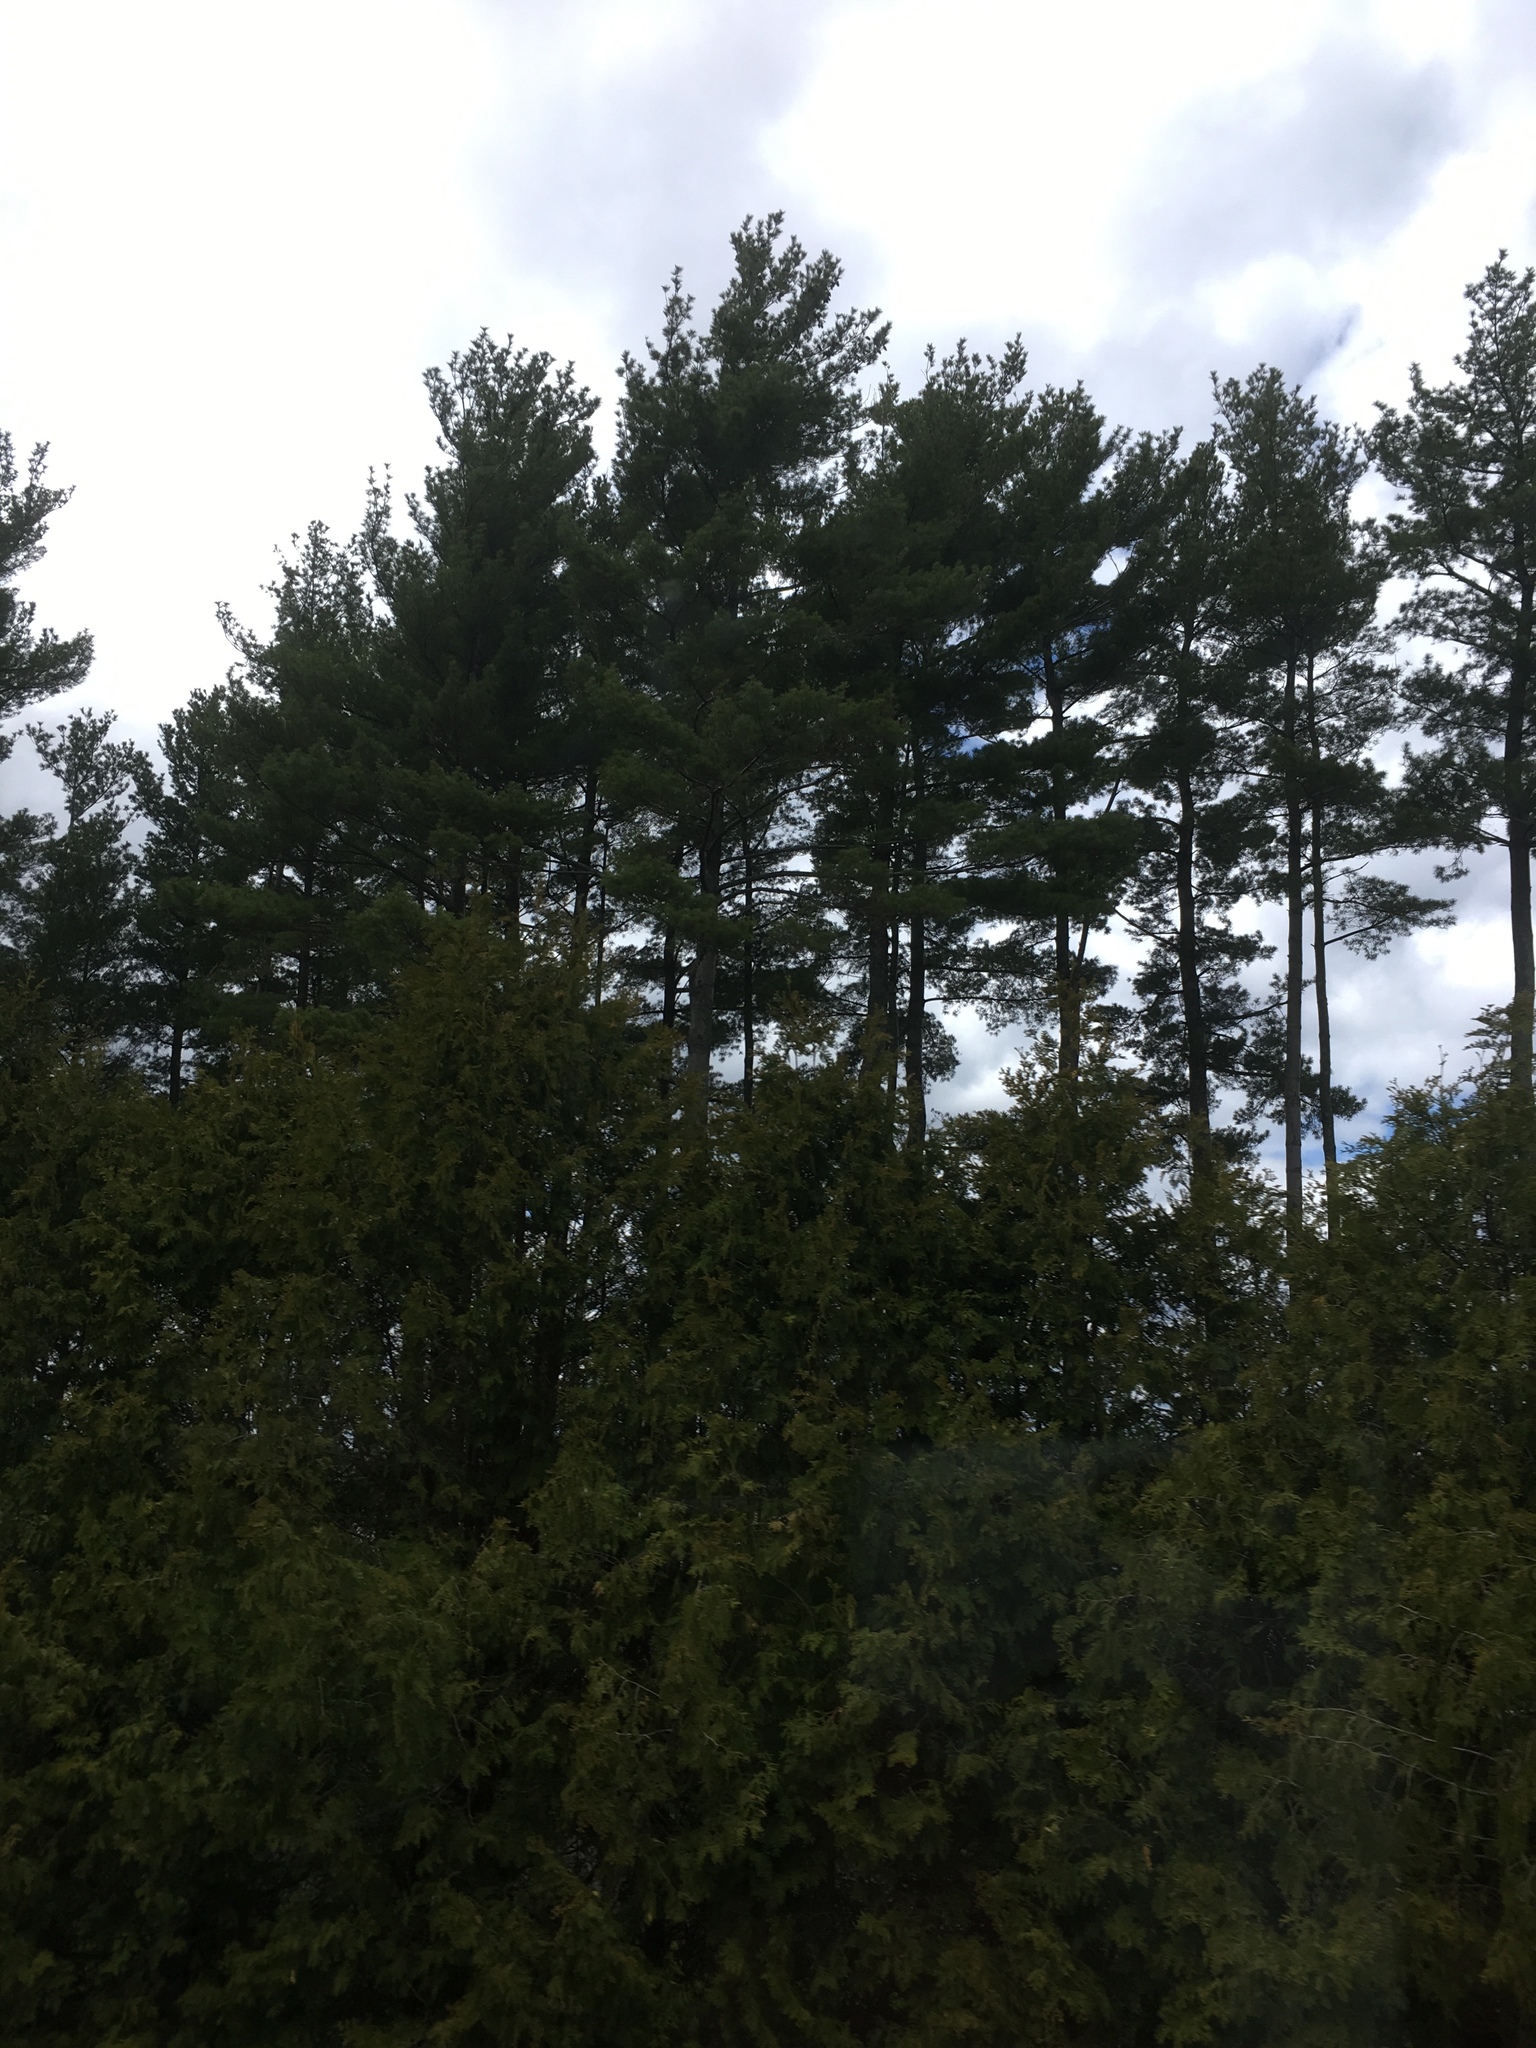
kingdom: Plantae
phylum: Tracheophyta
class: Pinopsida
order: Pinales
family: Pinaceae
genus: Pinus
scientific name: Pinus strobus
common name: Weymouth pine
